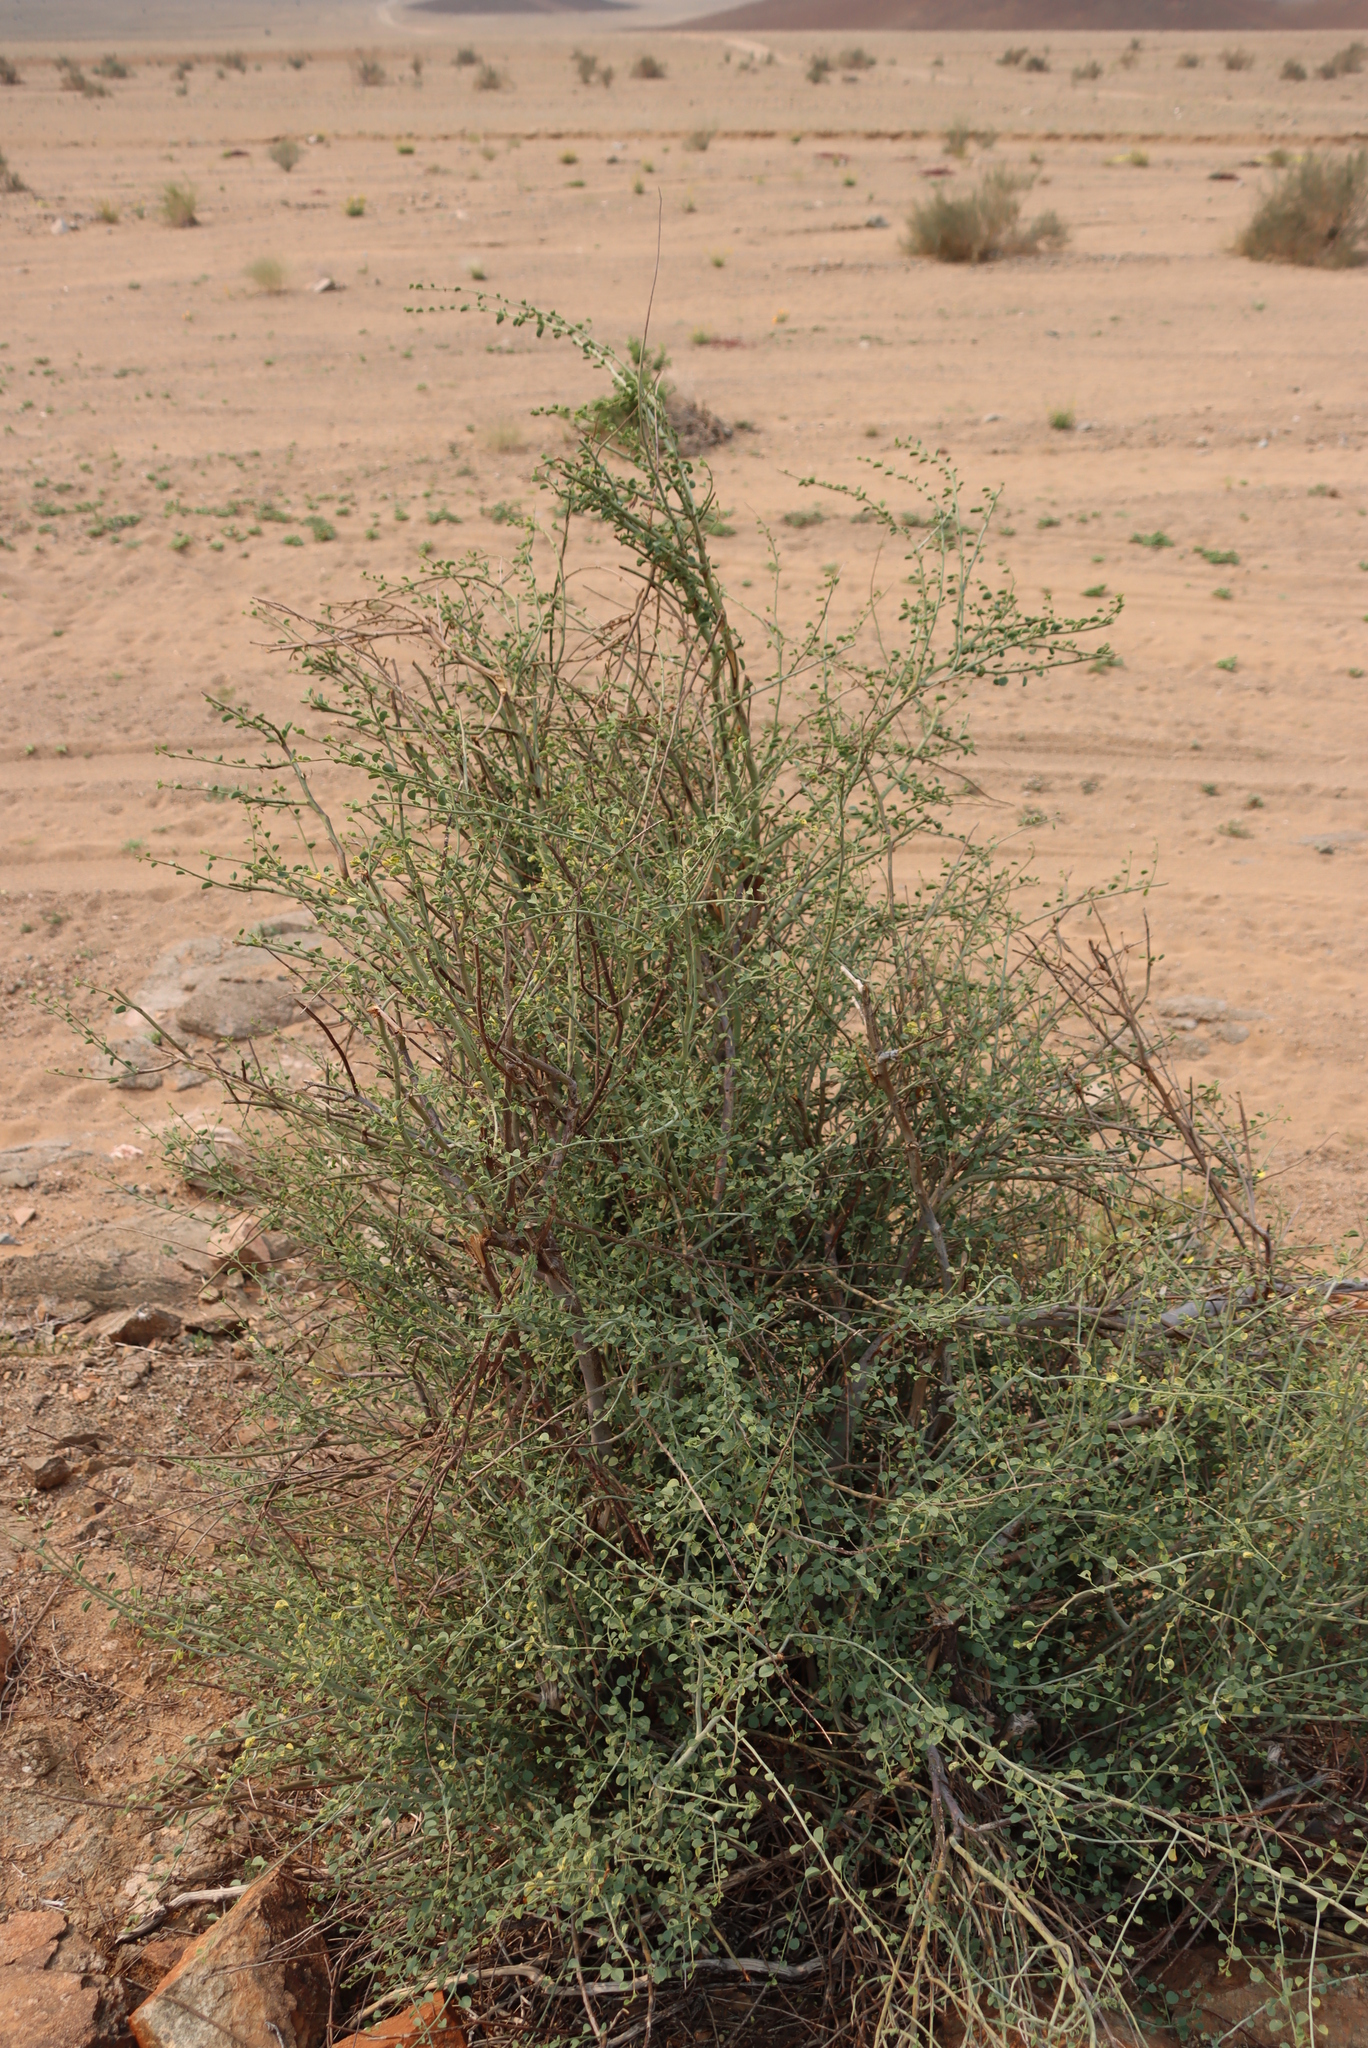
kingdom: Plantae
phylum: Tracheophyta
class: Magnoliopsida
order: Fabales
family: Fabaceae
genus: Adenolobus
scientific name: Adenolobus garipensis
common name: Butterfly-leaf
